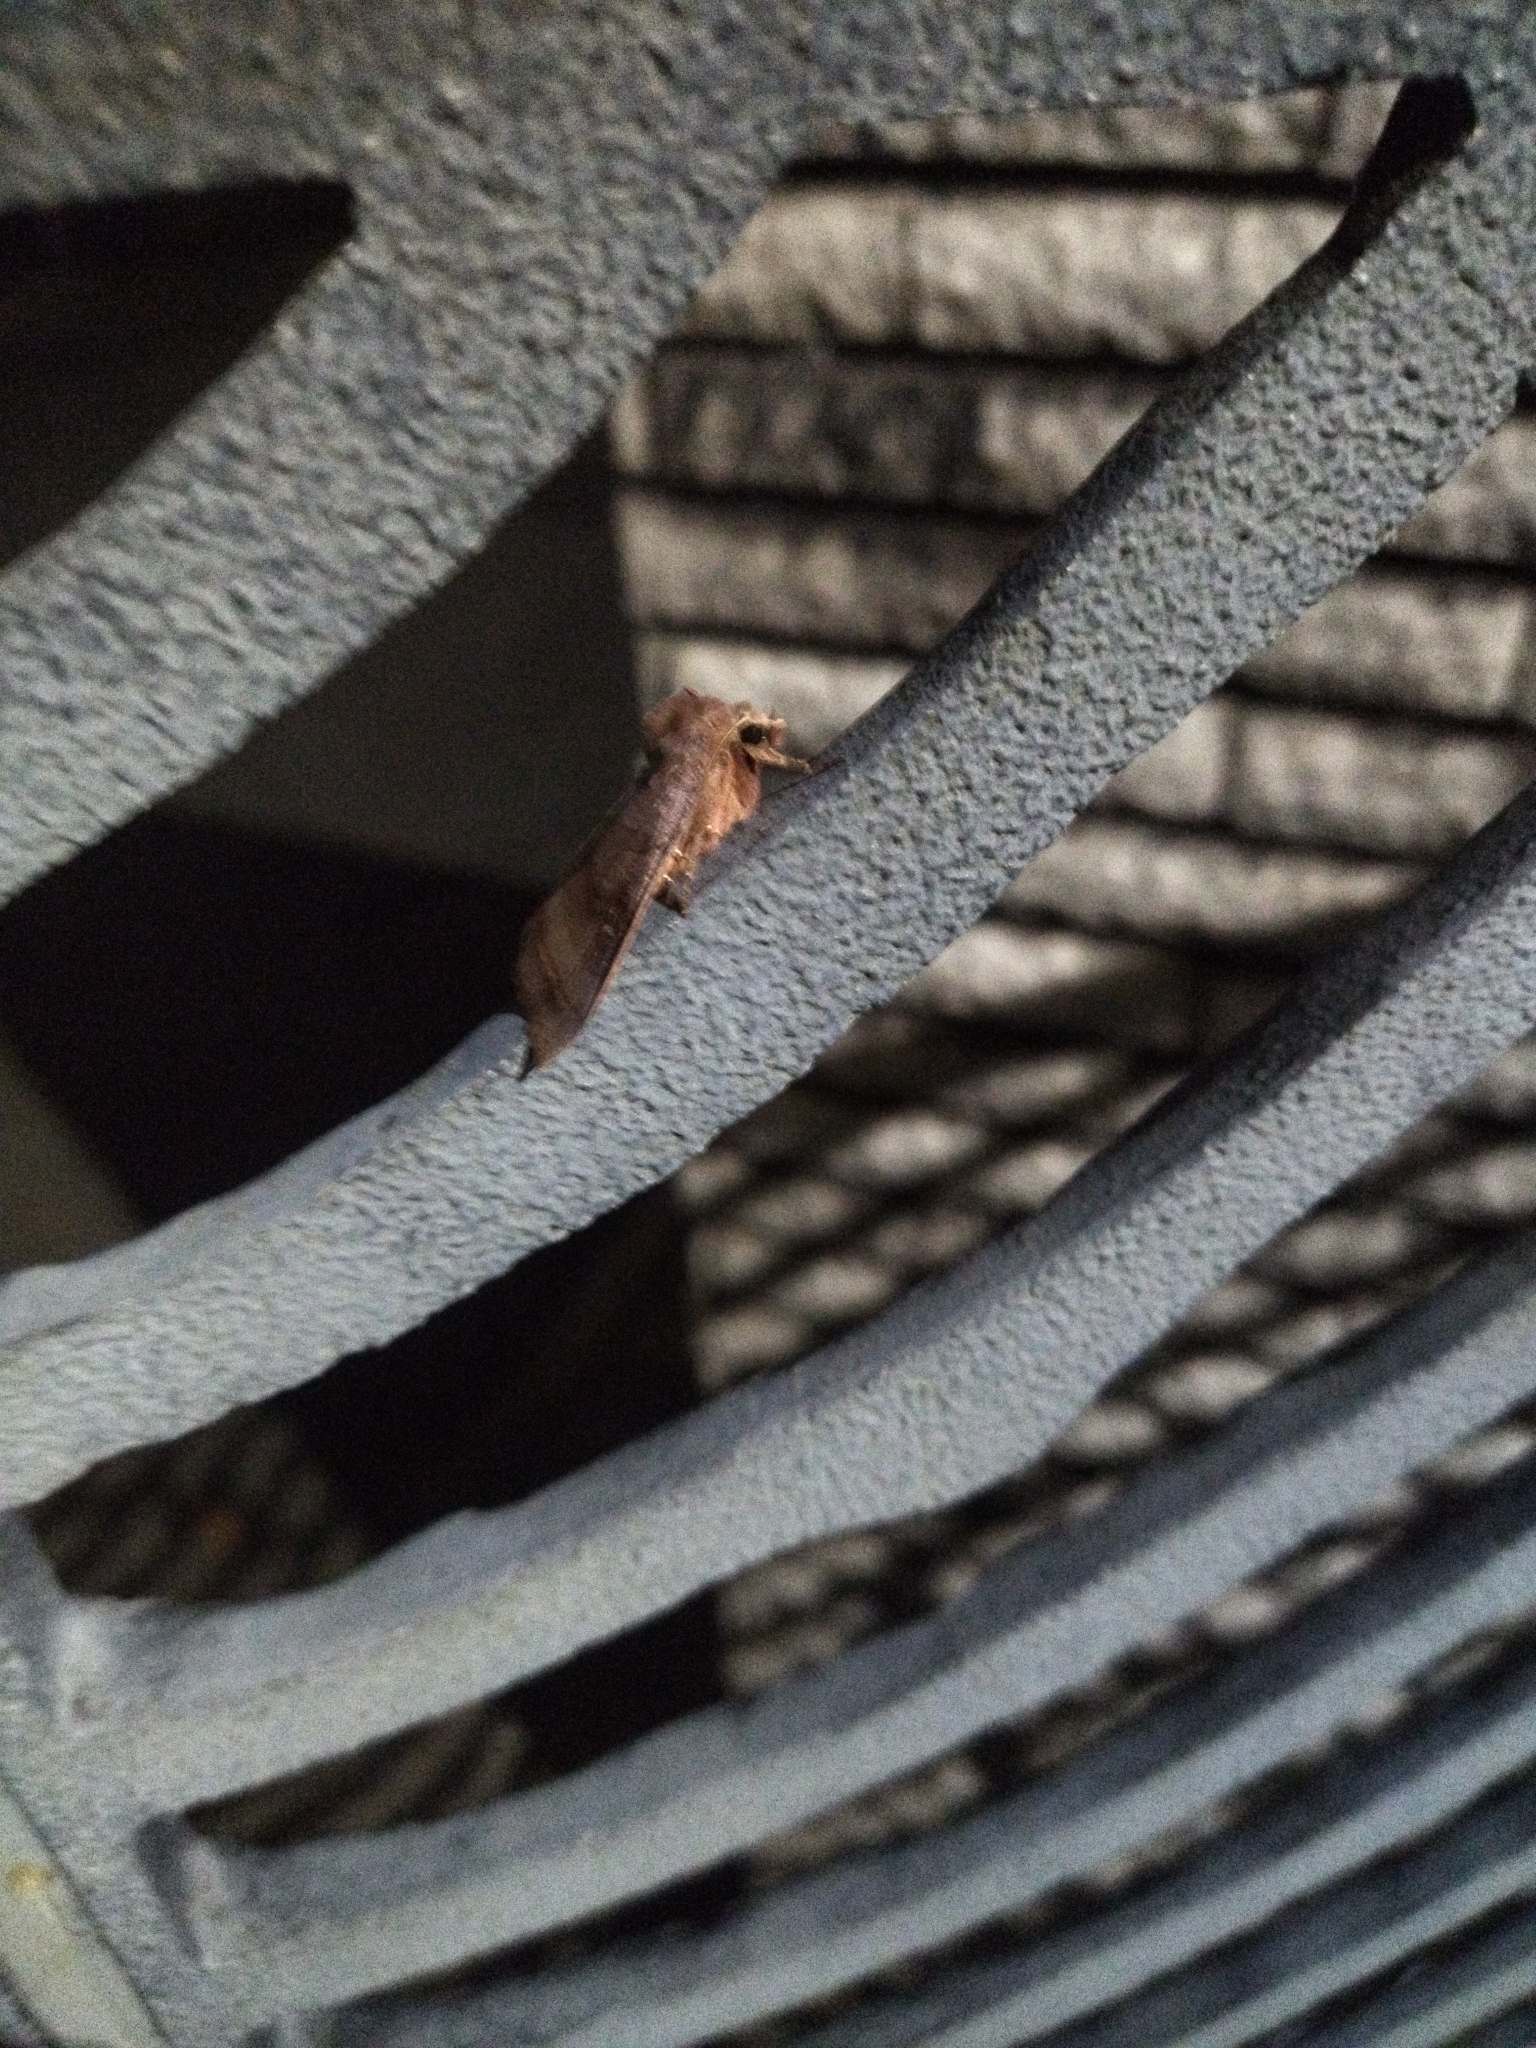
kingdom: Animalia
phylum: Arthropoda
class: Insecta
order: Lepidoptera
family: Noctuidae
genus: Xestia
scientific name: Xestia dilatata
